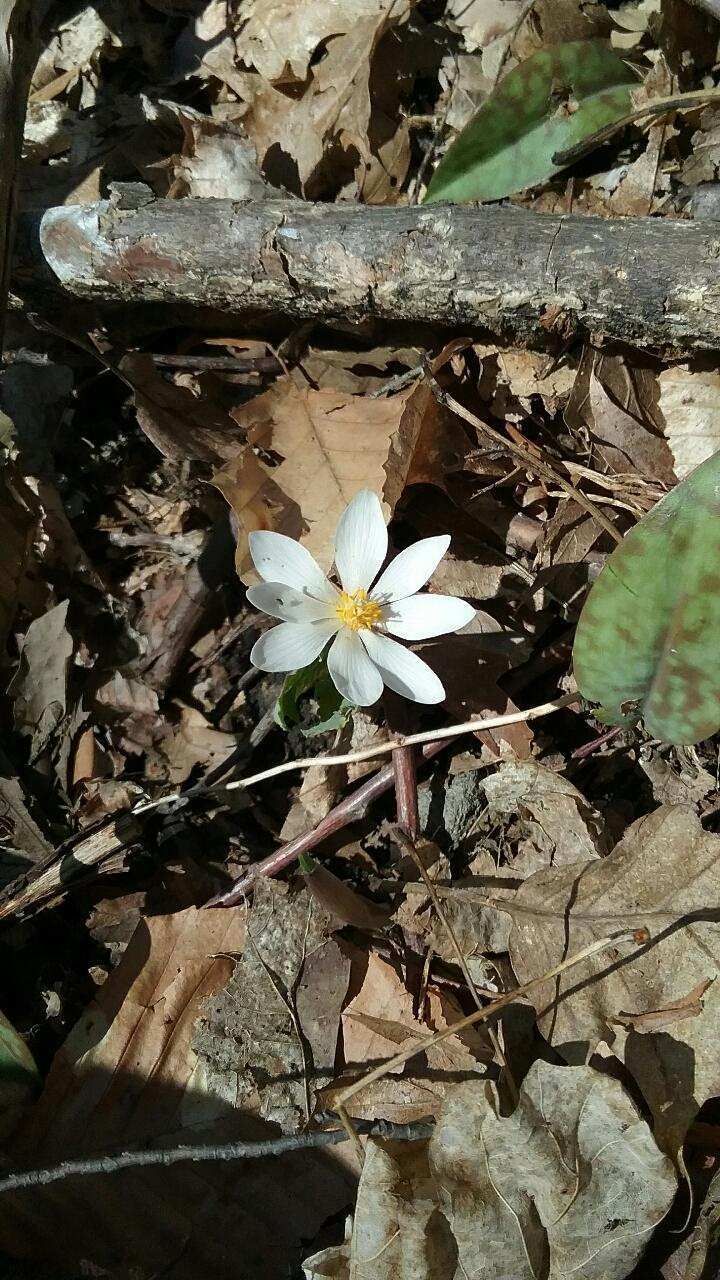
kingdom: Plantae
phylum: Tracheophyta
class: Magnoliopsida
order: Ranunculales
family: Papaveraceae
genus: Sanguinaria
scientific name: Sanguinaria canadensis
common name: Bloodroot
